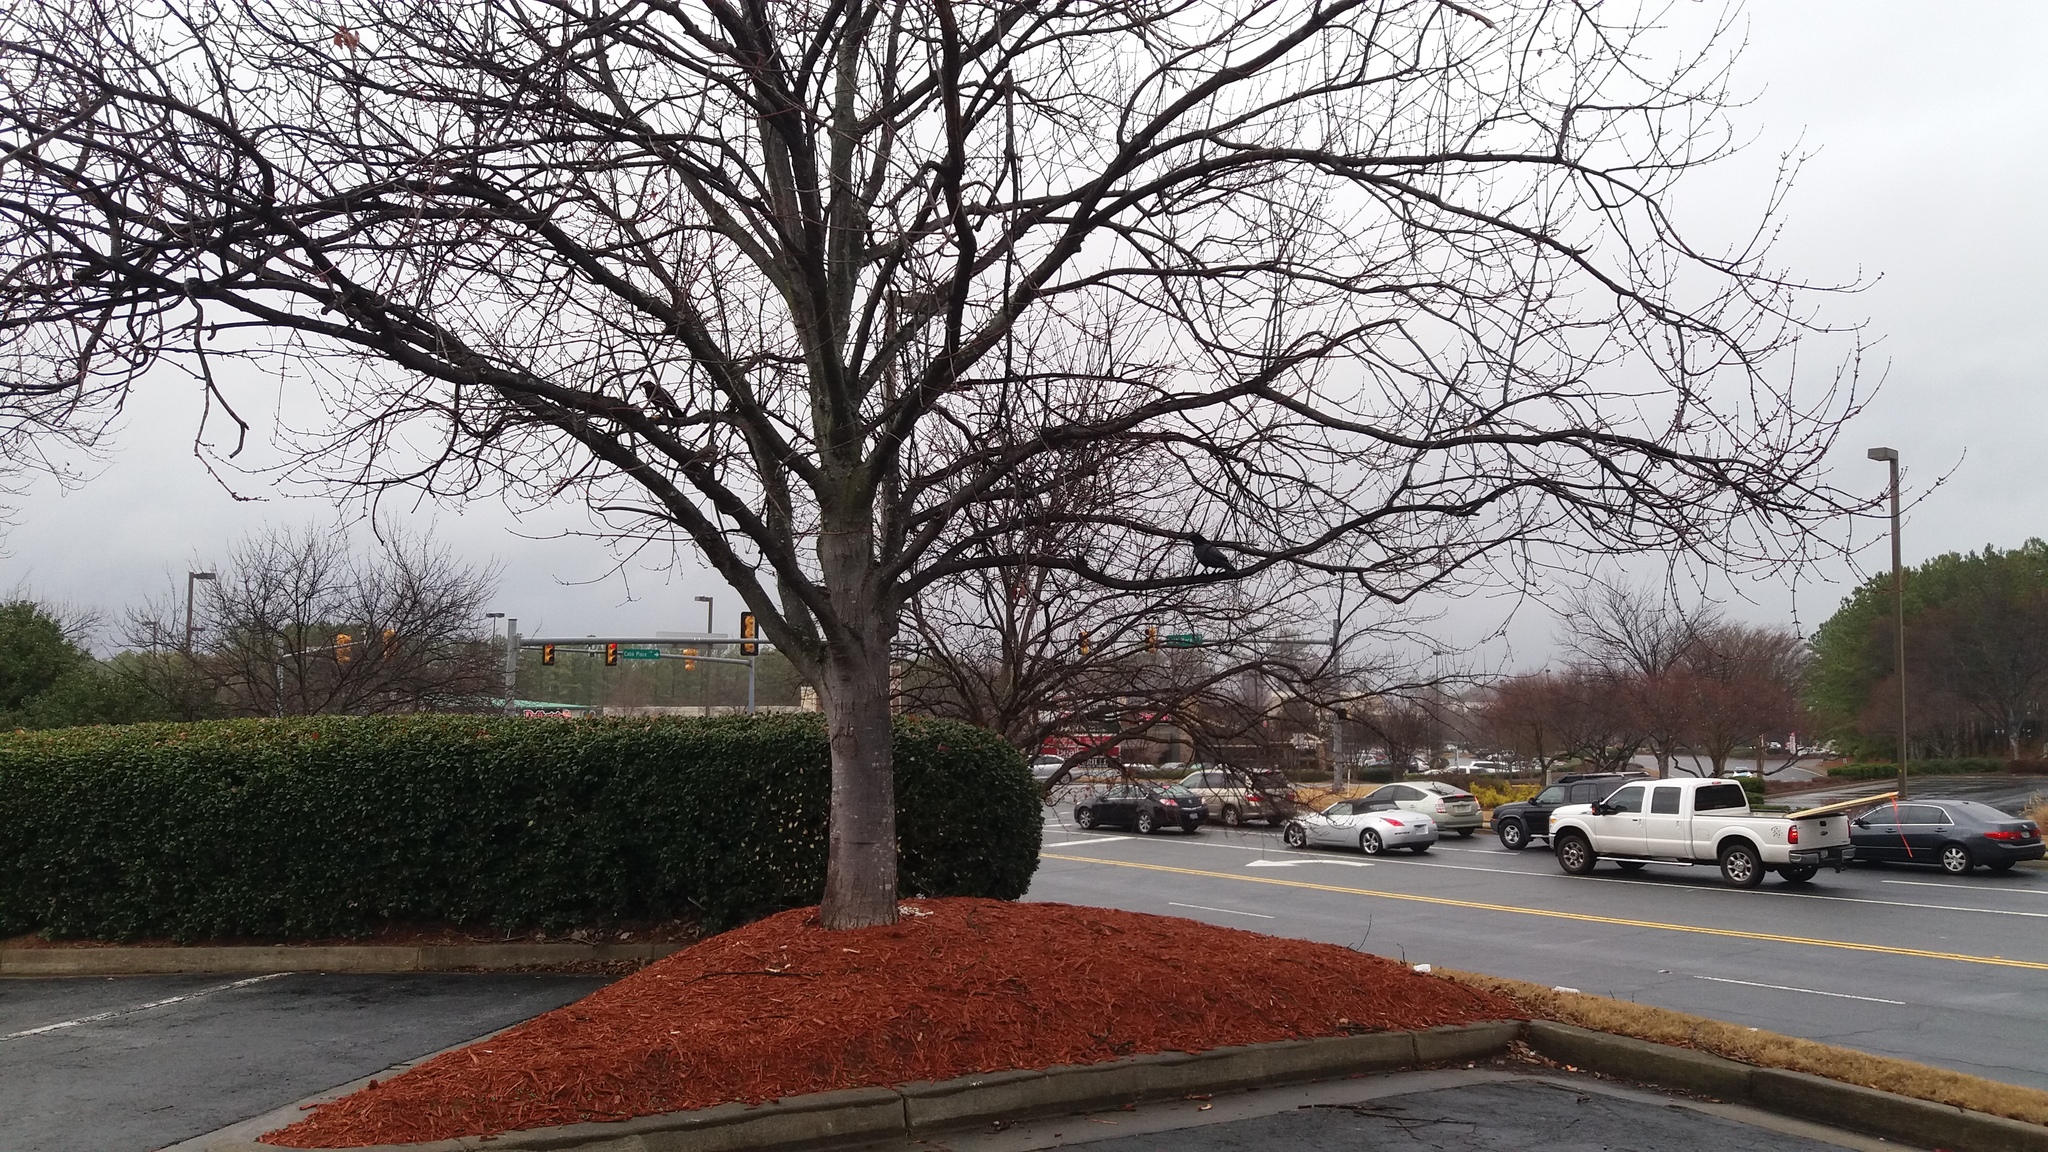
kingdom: Animalia
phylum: Chordata
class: Aves
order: Passeriformes
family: Corvidae
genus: Corvus
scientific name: Corvus
